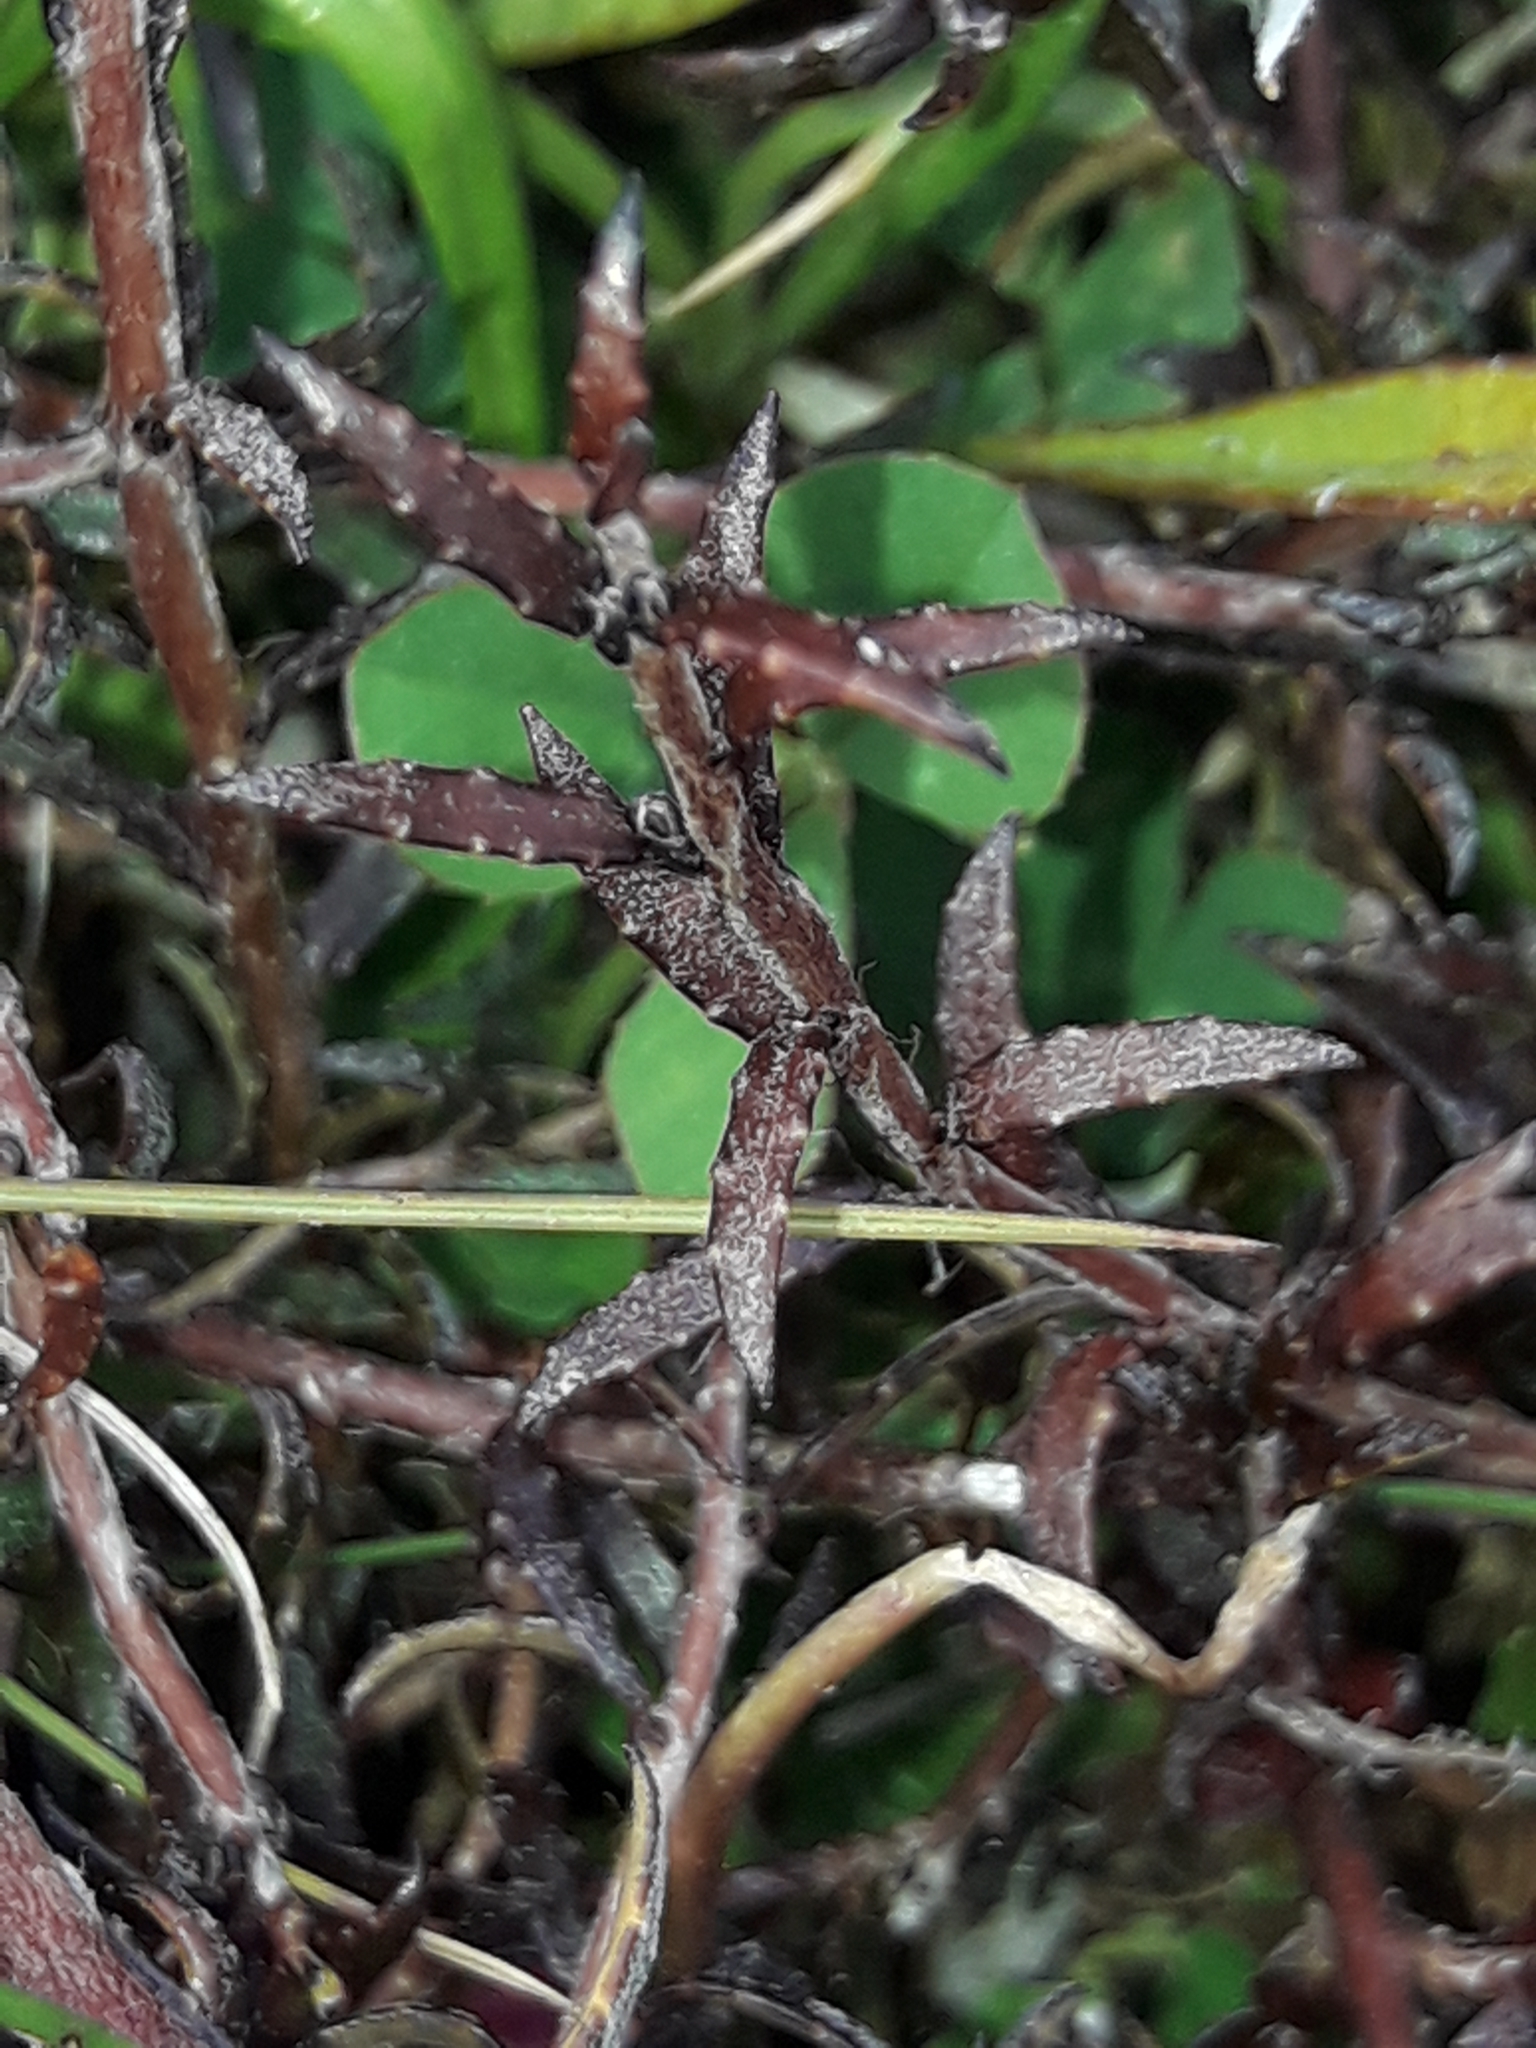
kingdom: Plantae
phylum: Tracheophyta
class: Magnoliopsida
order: Ericales
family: Ericaceae
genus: Gaultheria
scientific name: Gaultheria macrostigma
